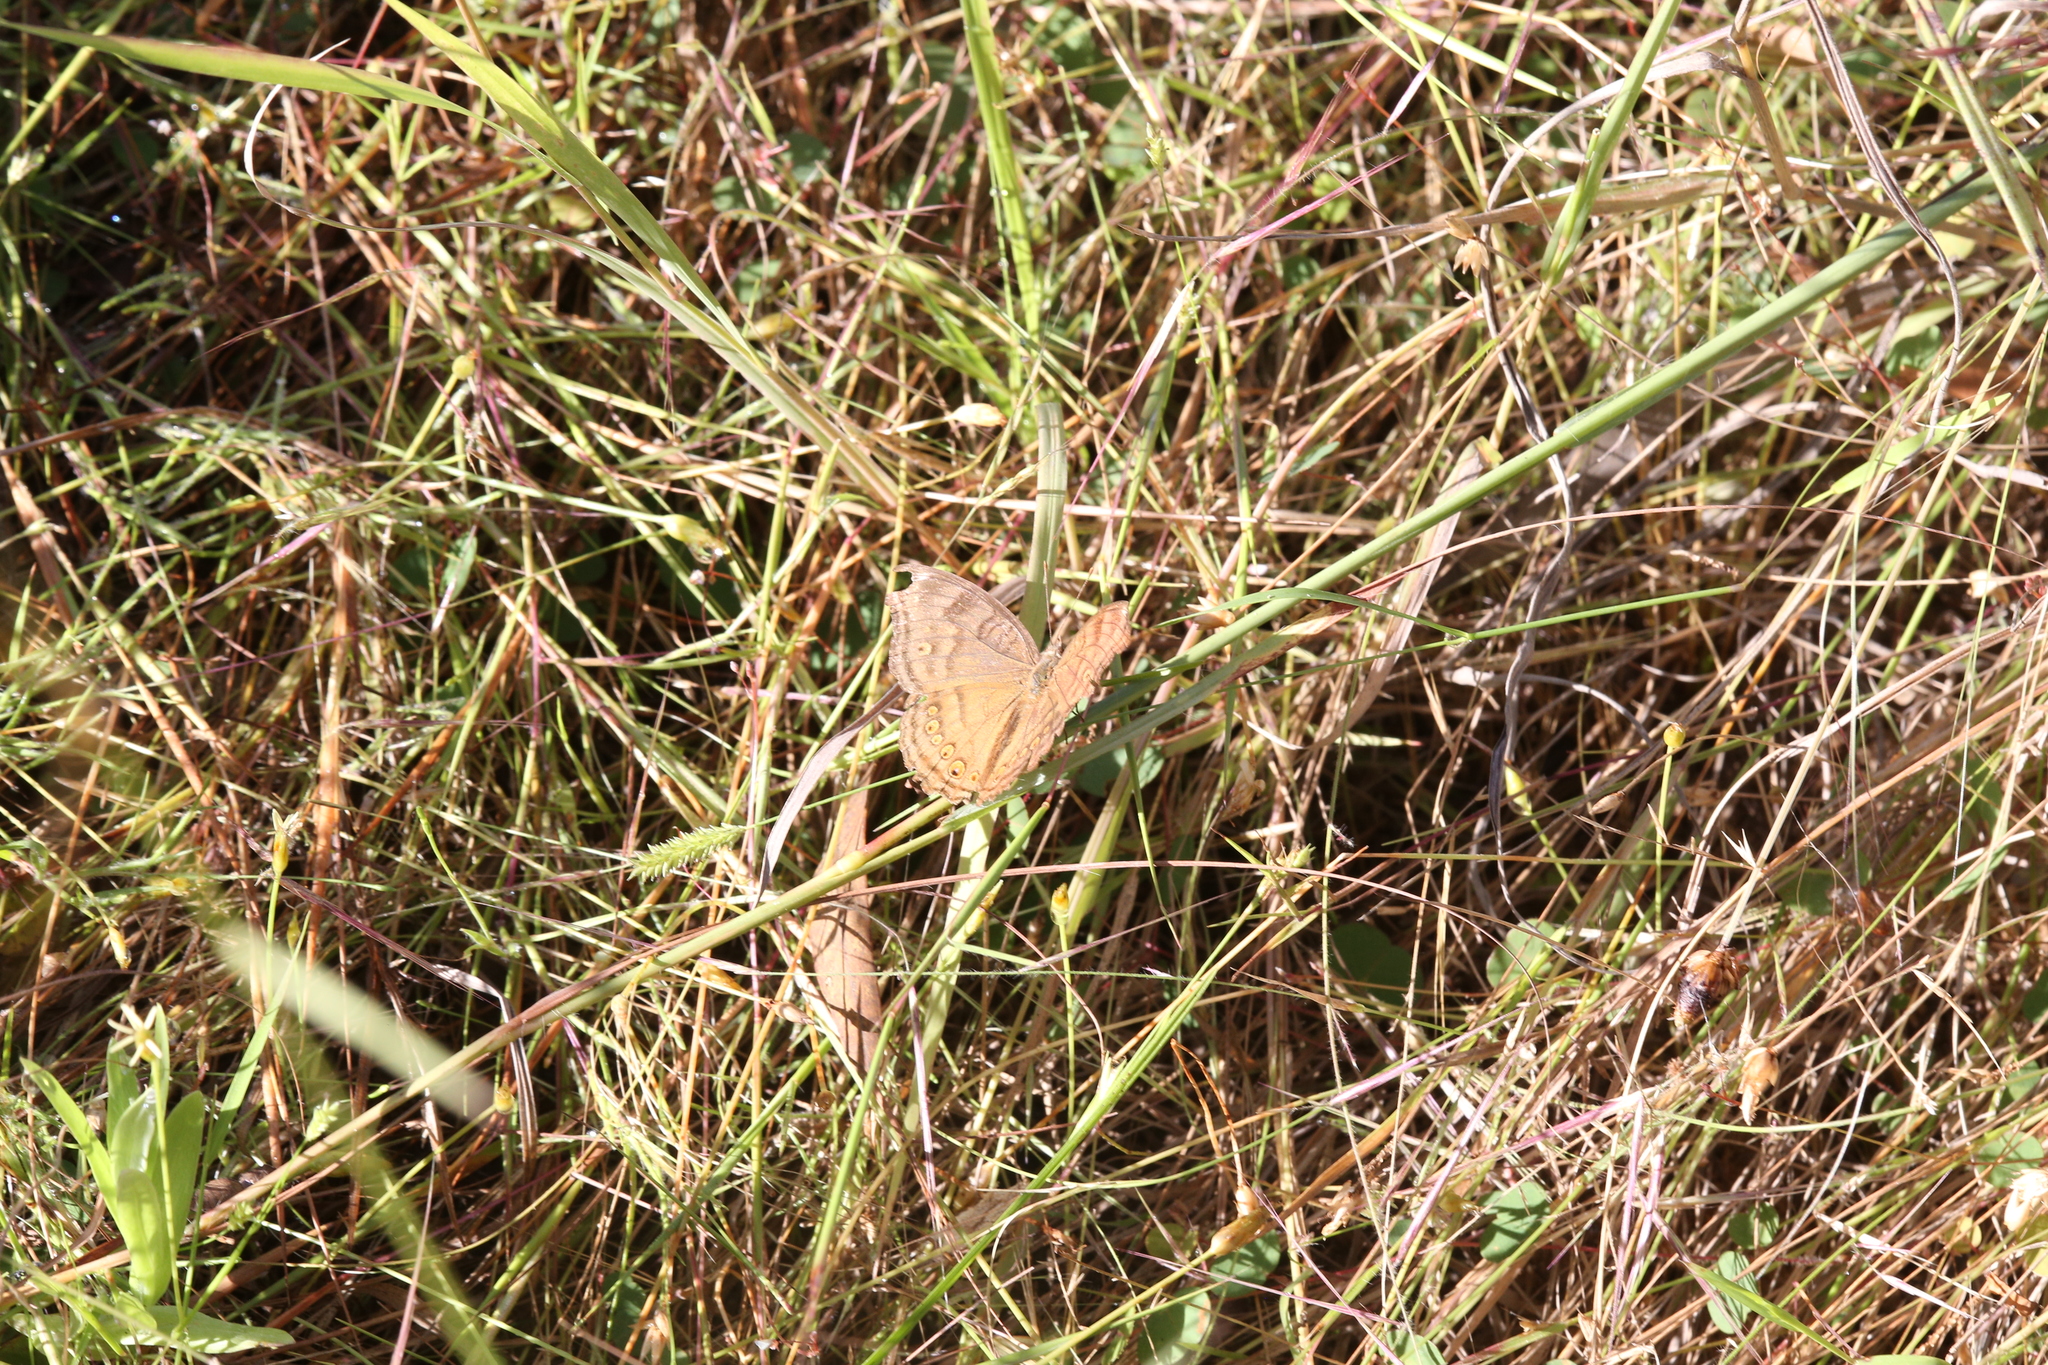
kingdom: Animalia
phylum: Arthropoda
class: Insecta
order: Lepidoptera
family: Nymphalidae
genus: Junonia
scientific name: Junonia hedonia
